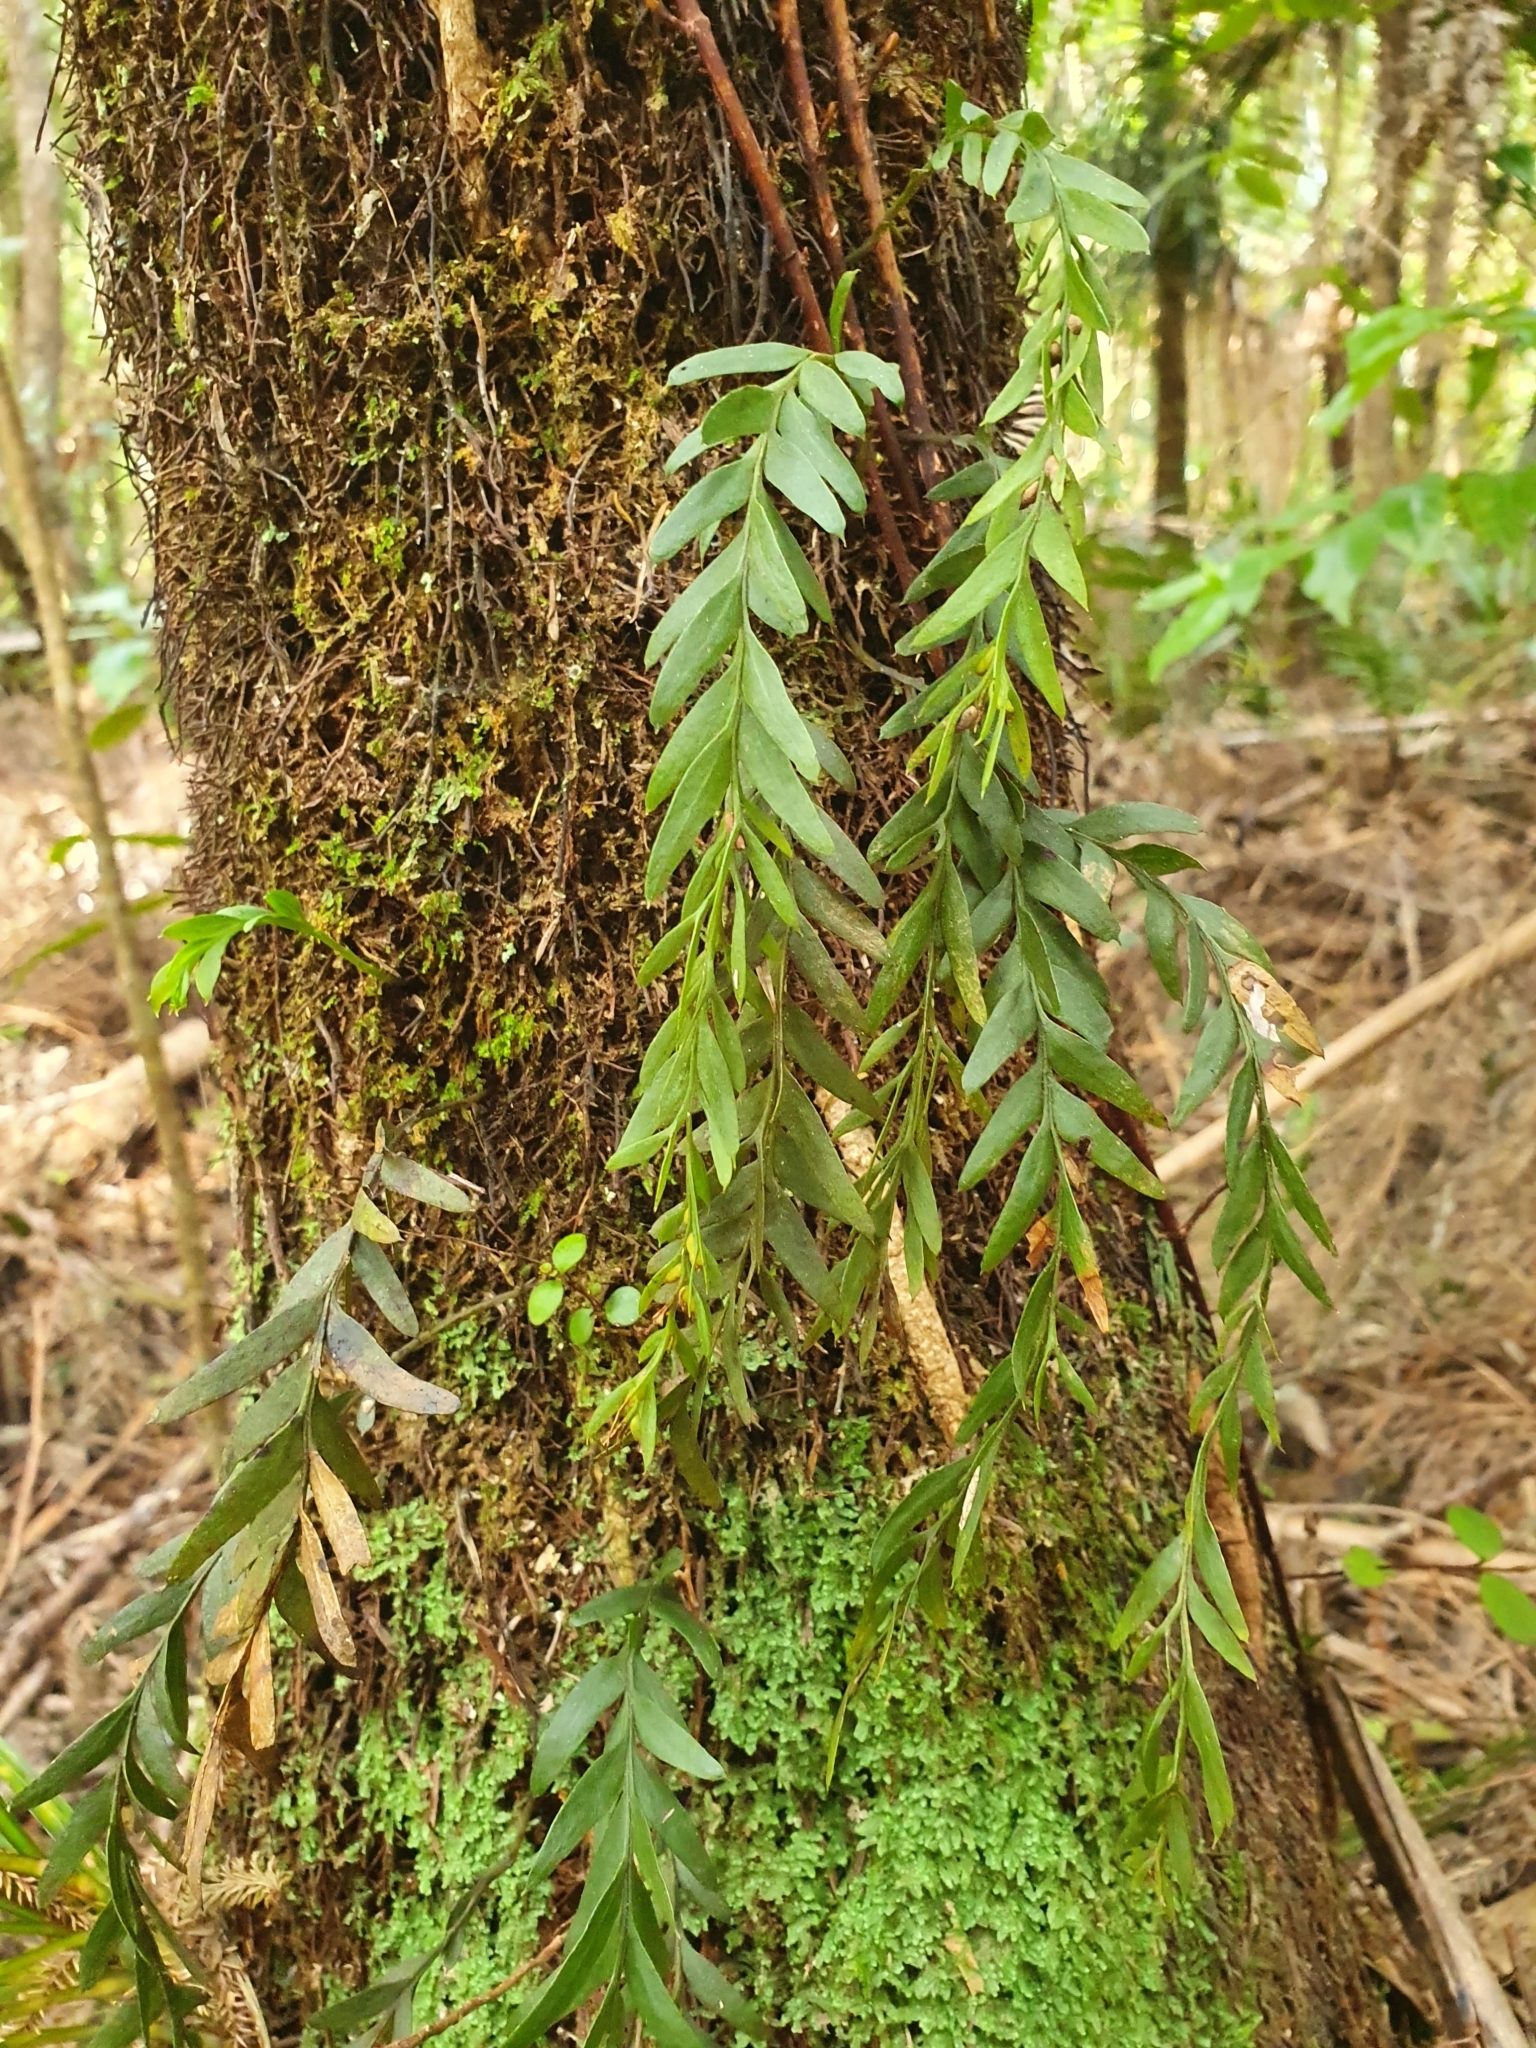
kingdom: Plantae
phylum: Tracheophyta
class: Polypodiopsida
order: Psilotales
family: Psilotaceae
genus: Tmesipteris
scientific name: Tmesipteris elongata
